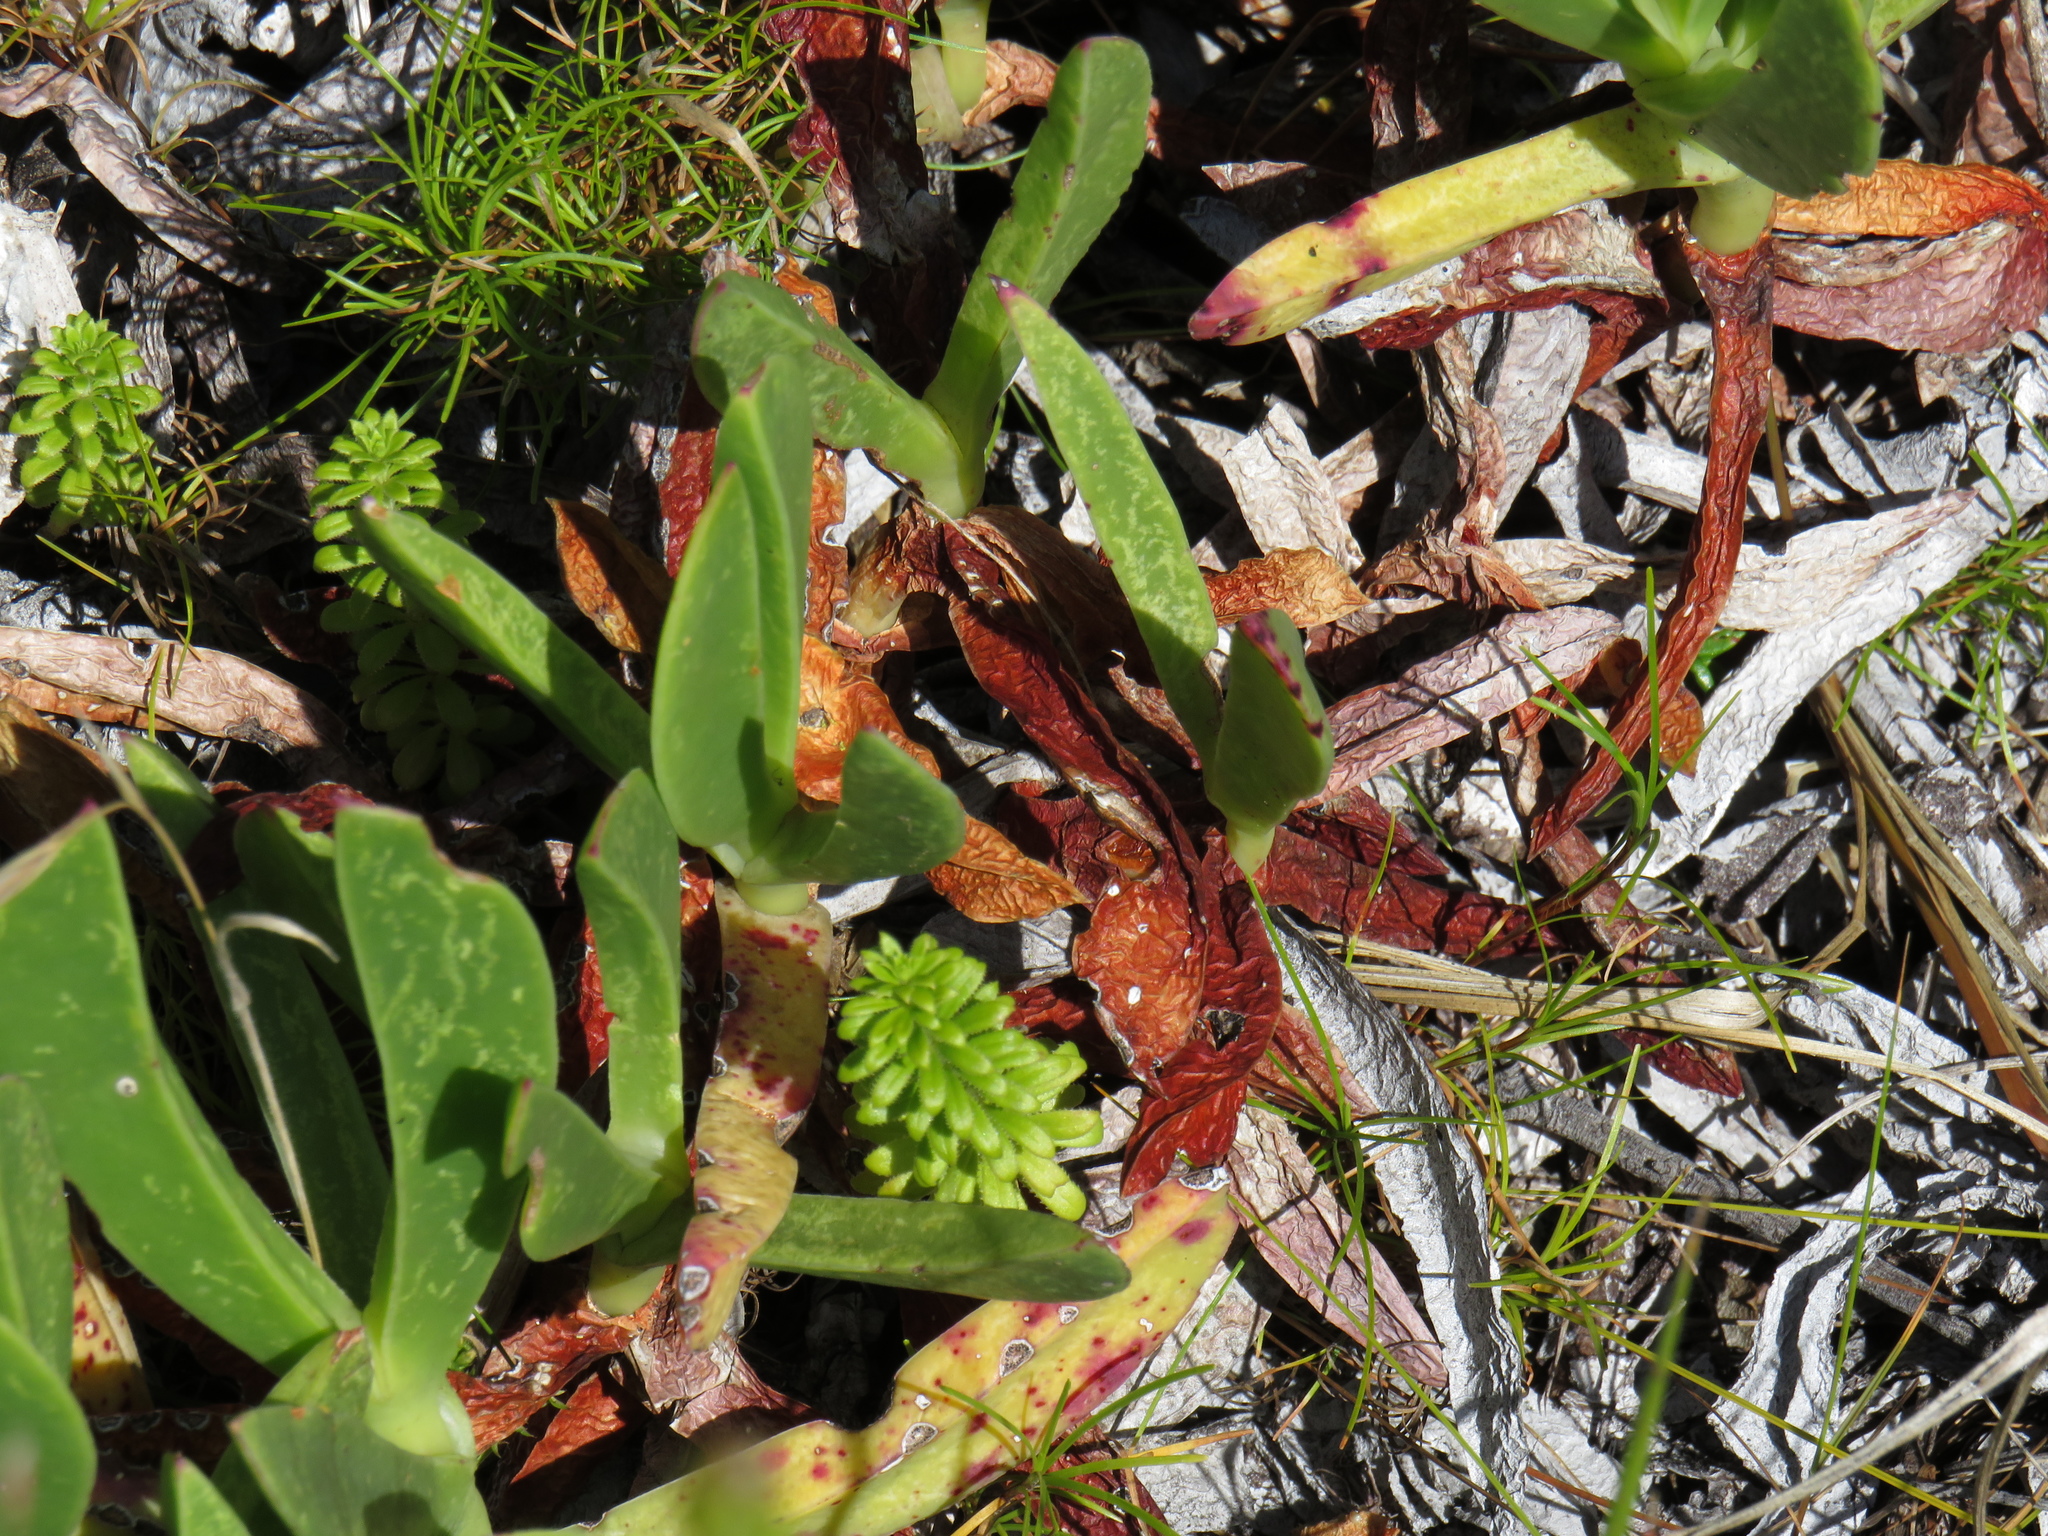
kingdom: Plantae
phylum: Tracheophyta
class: Magnoliopsida
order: Gentianales
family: Rubiaceae
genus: Galium
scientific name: Galium tomentosum
